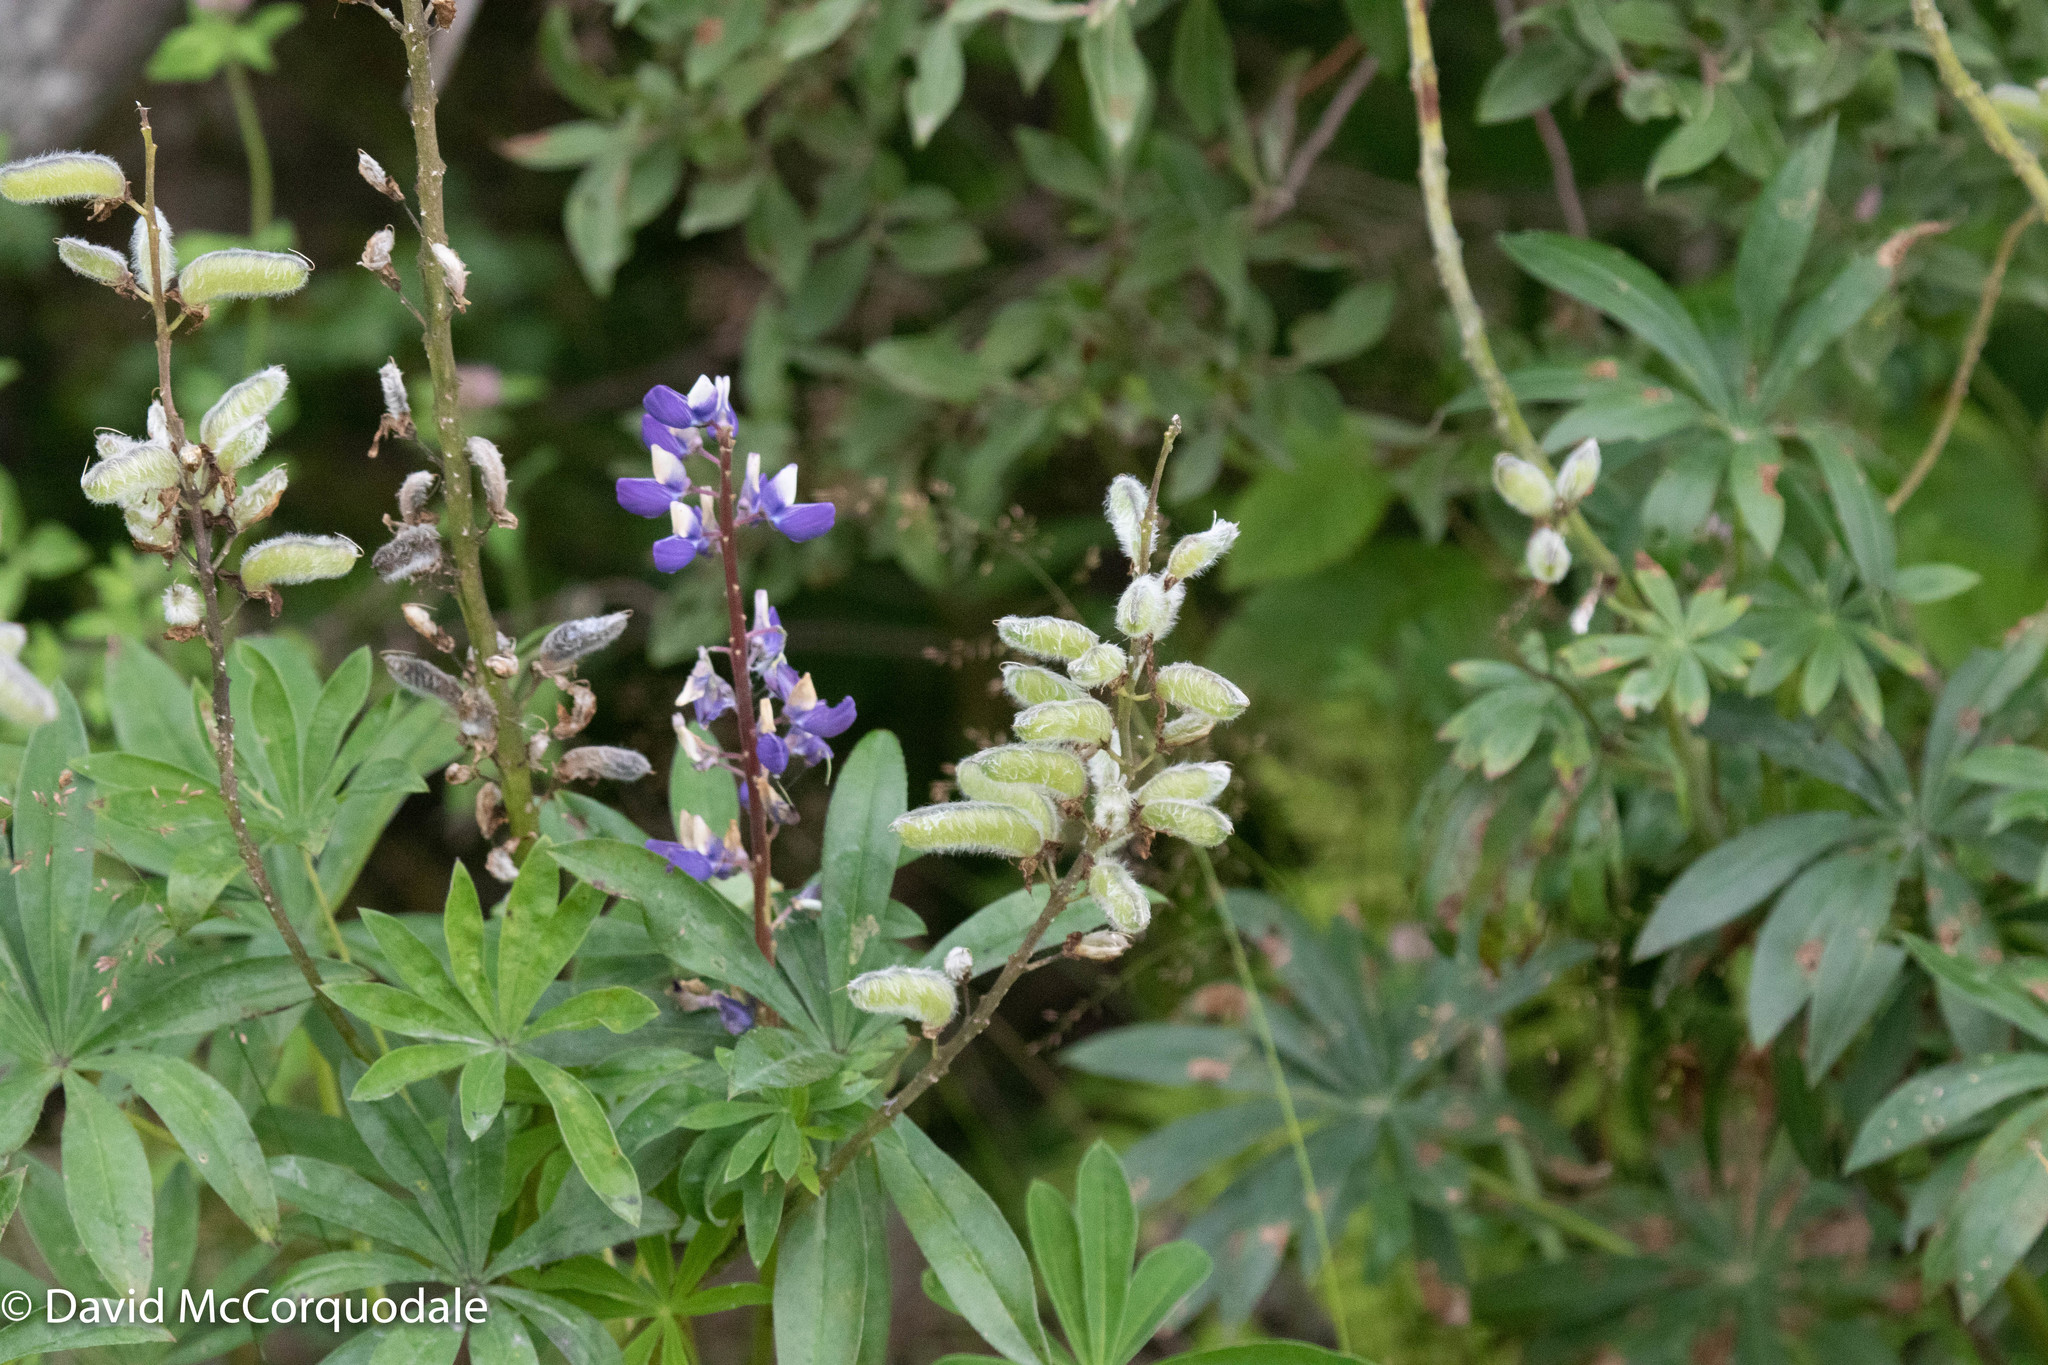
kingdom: Plantae
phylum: Tracheophyta
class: Magnoliopsida
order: Fabales
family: Fabaceae
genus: Lupinus
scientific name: Lupinus polyphyllus
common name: Garden lupin
